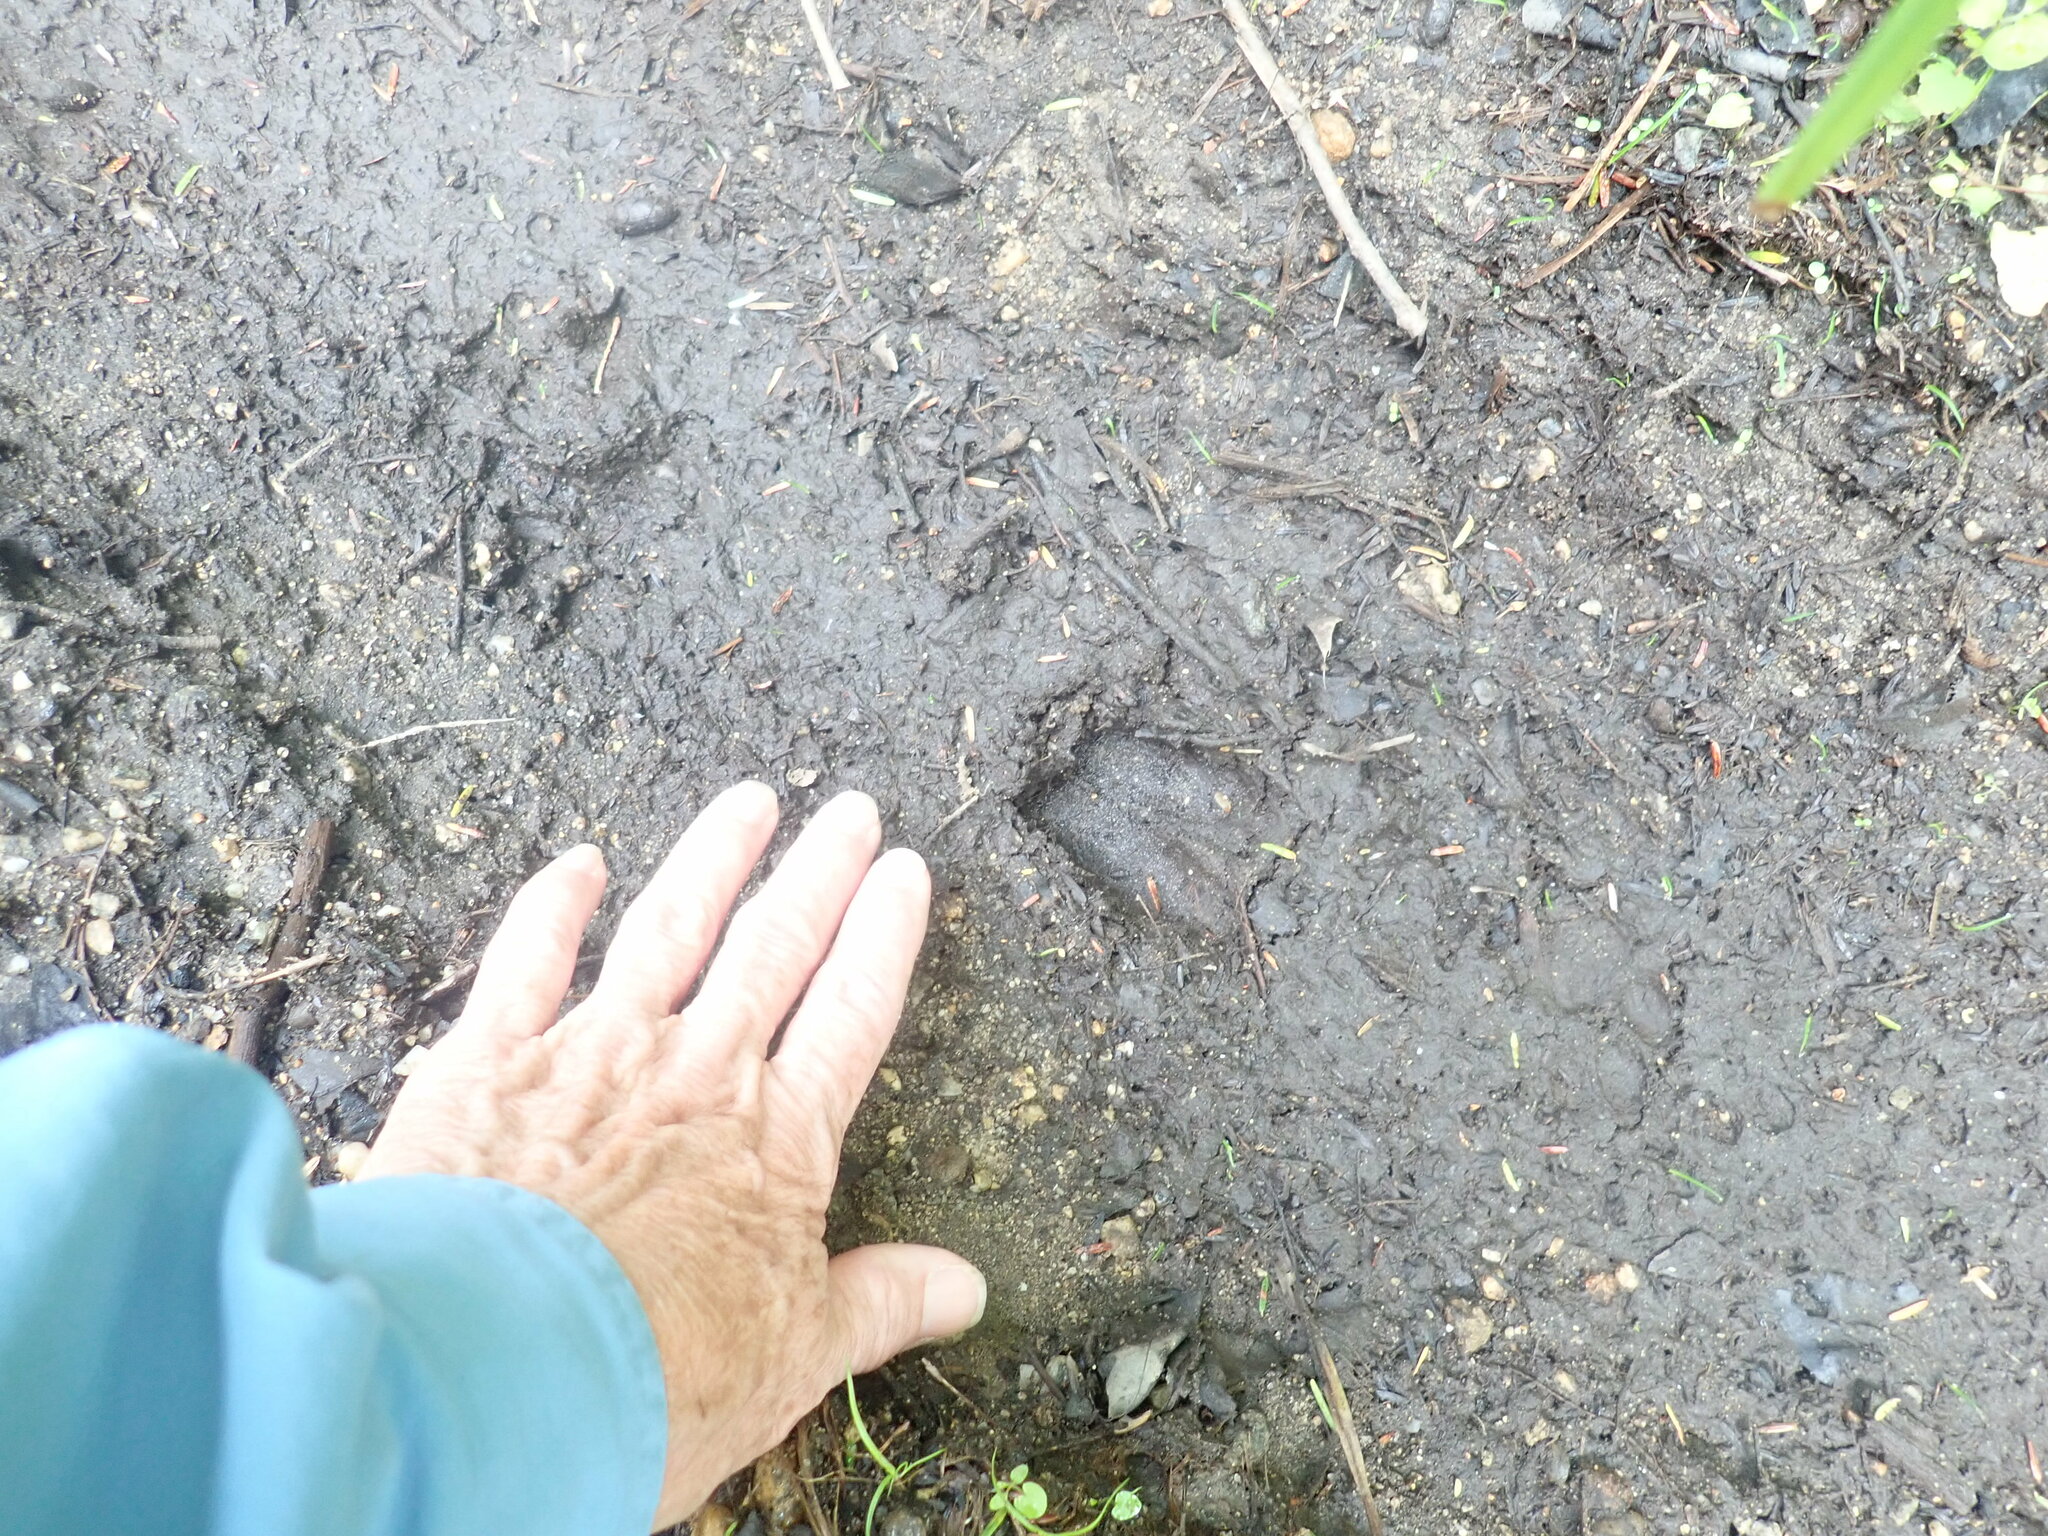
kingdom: Animalia
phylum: Chordata
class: Mammalia
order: Artiodactyla
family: Cervidae
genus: Odocoileus
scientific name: Odocoileus virginianus
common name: White-tailed deer
